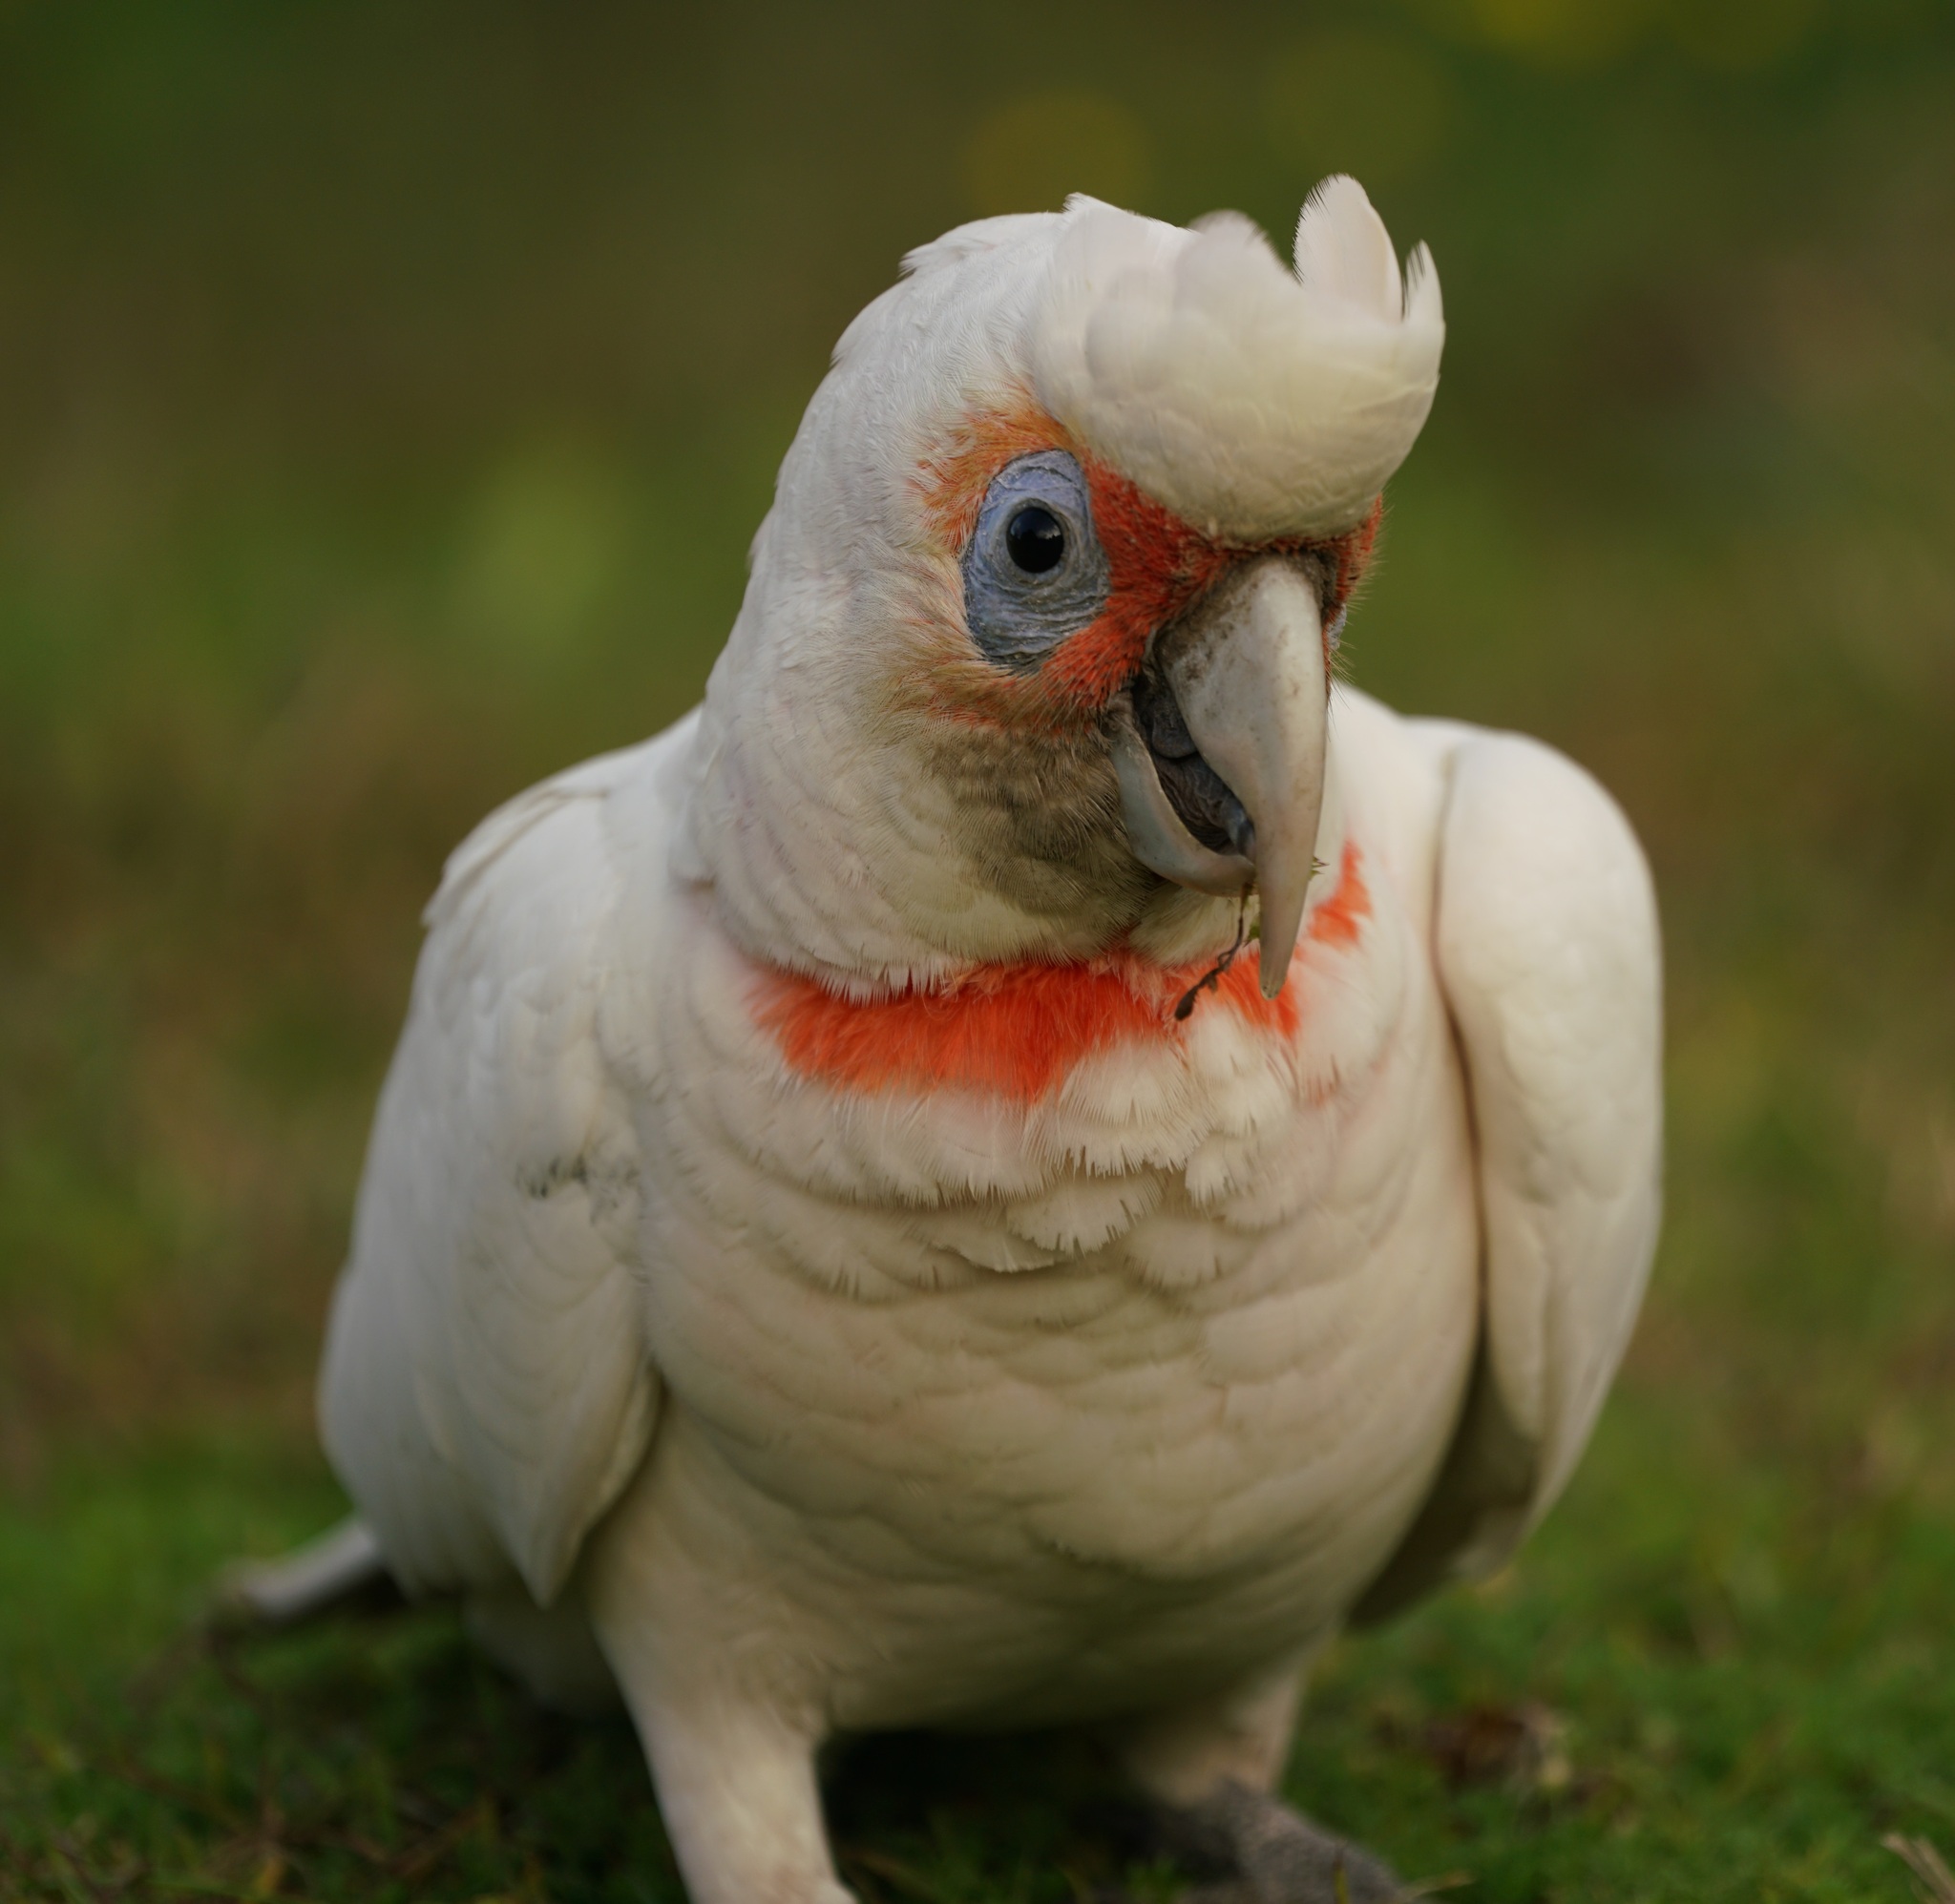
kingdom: Animalia
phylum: Chordata
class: Aves
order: Psittaciformes
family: Psittacidae
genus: Cacatua
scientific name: Cacatua tenuirostris
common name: Long-billed corella
